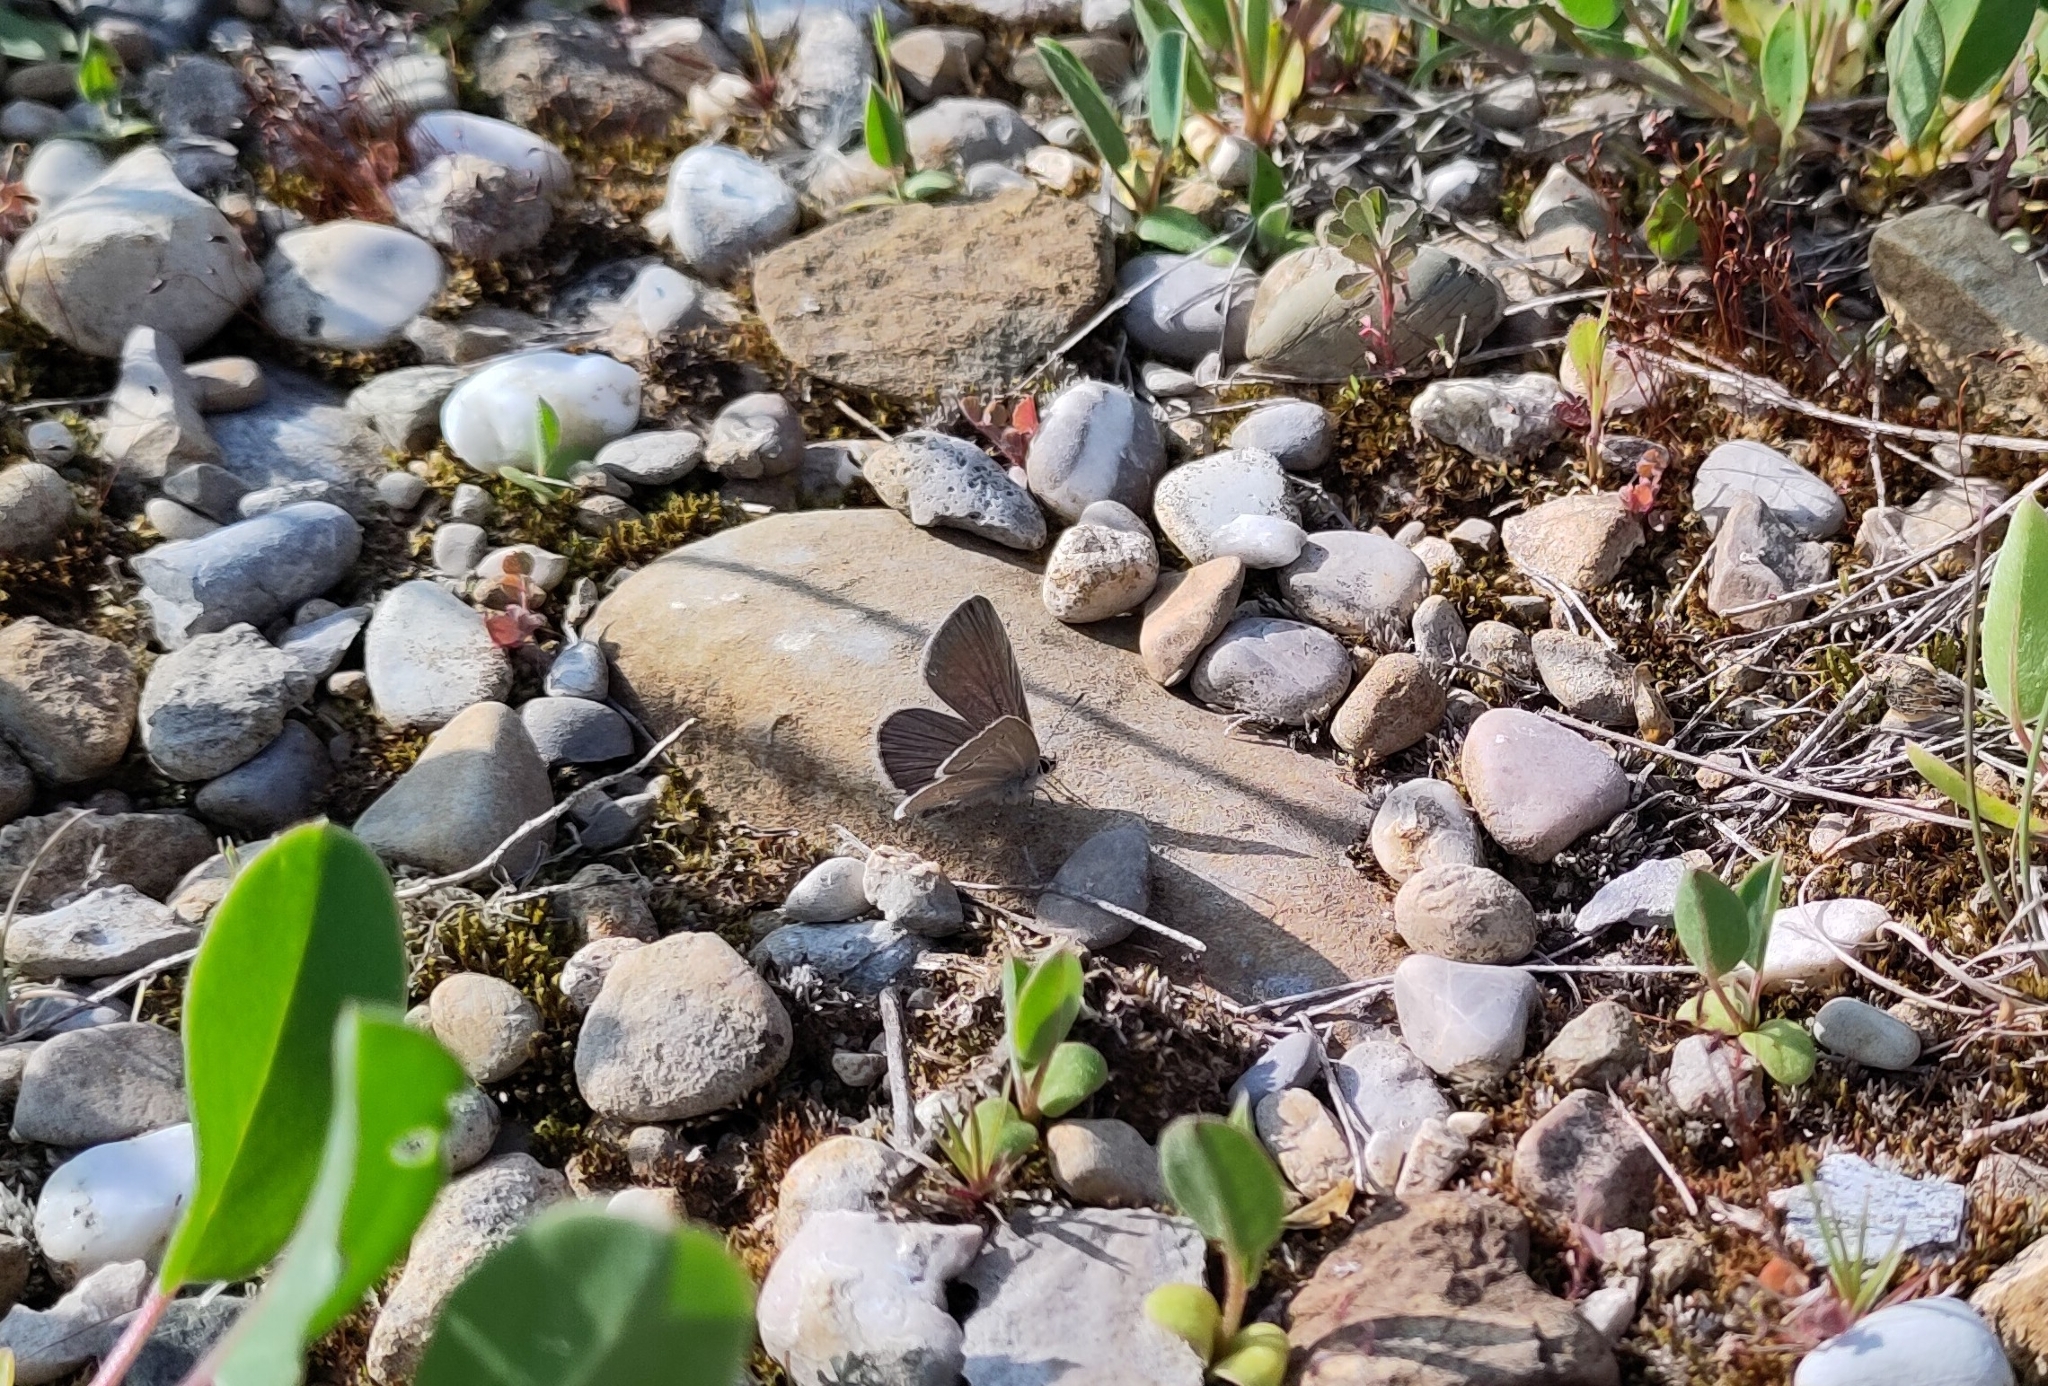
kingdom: Animalia
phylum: Arthropoda
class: Insecta
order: Lepidoptera
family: Lycaenidae
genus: Cupido
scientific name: Cupido minimus
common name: Small blue
